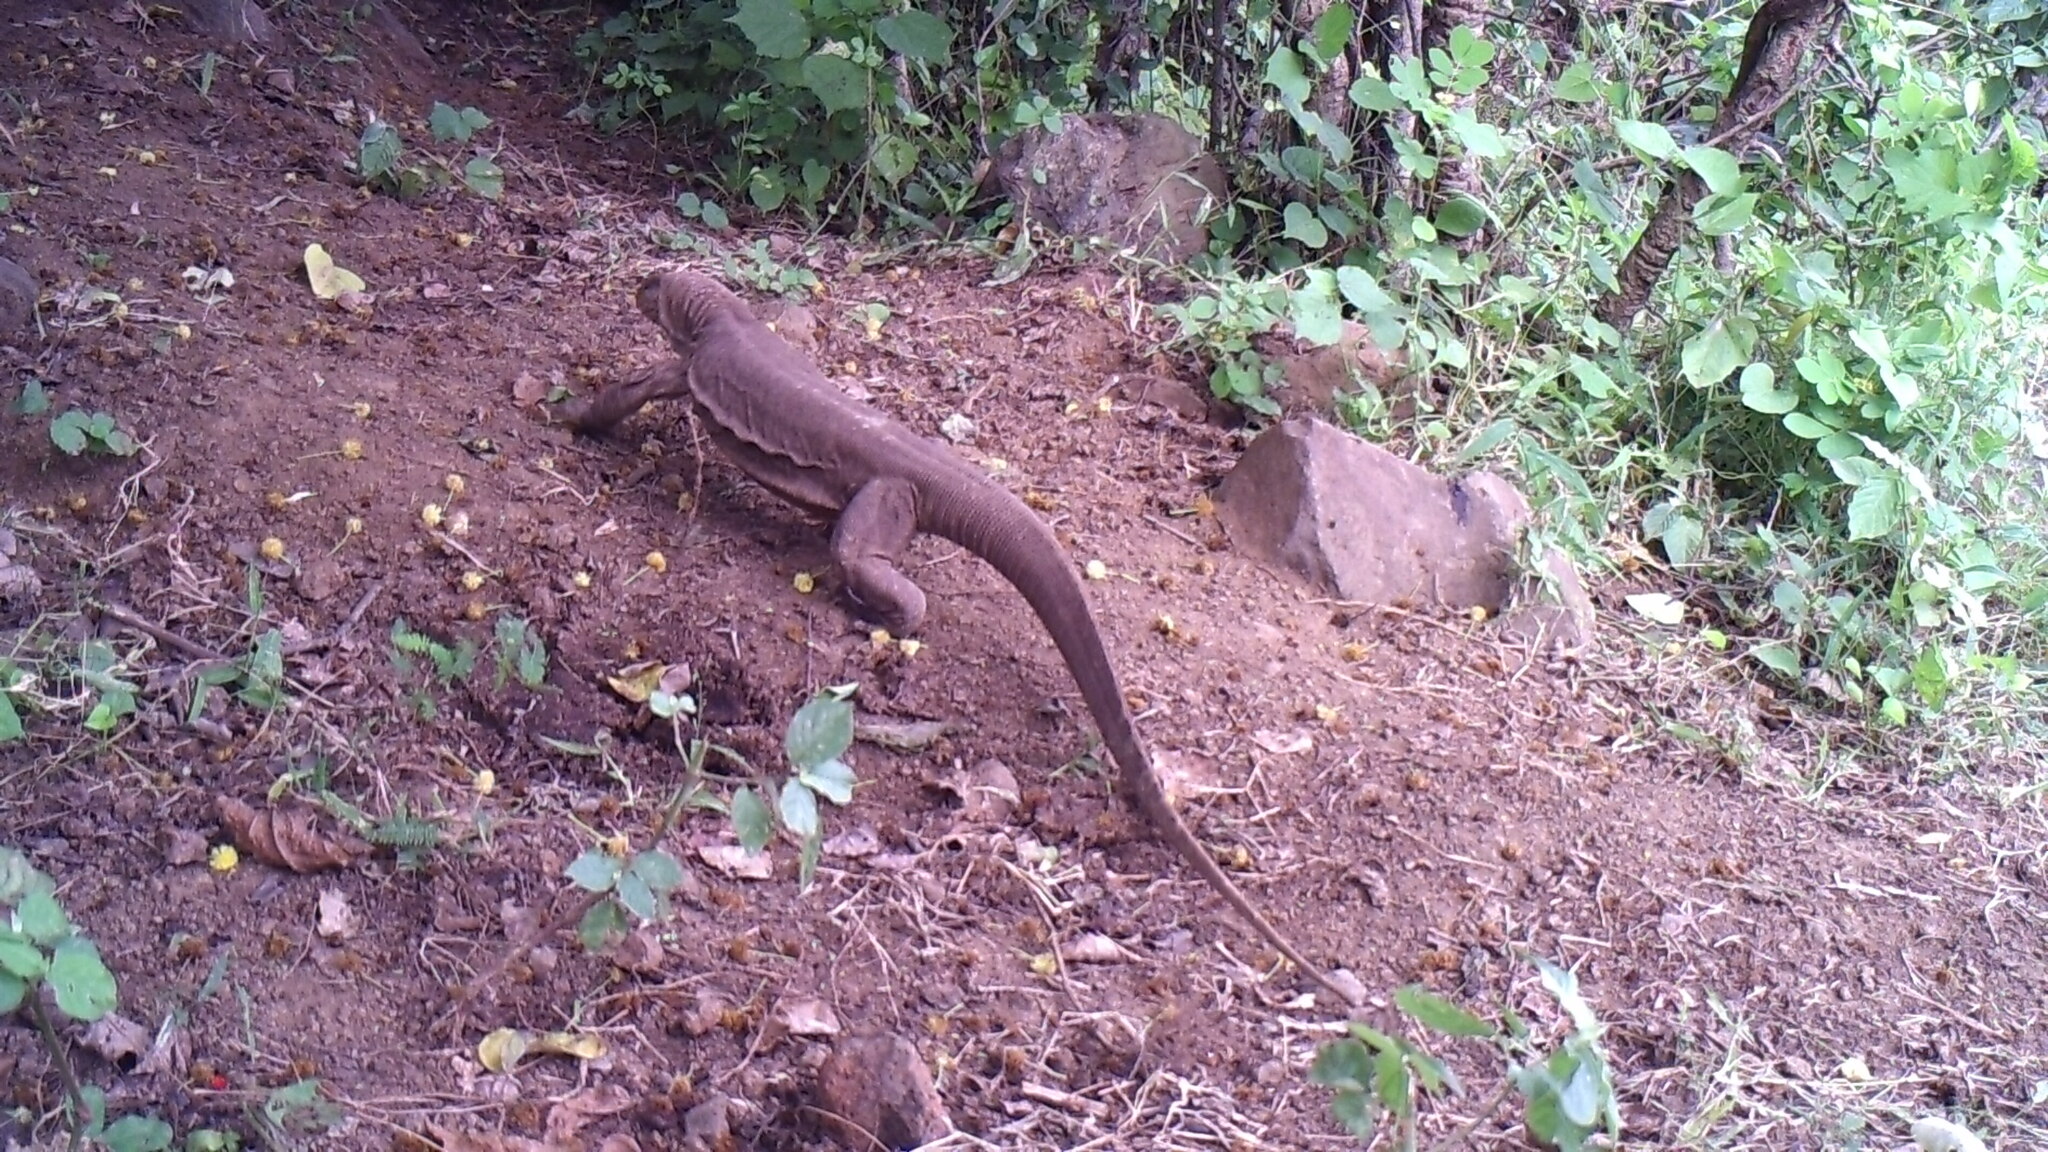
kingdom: Animalia
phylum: Chordata
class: Squamata
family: Varanidae
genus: Varanus
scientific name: Varanus bengalensis
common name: Bengal monitor
